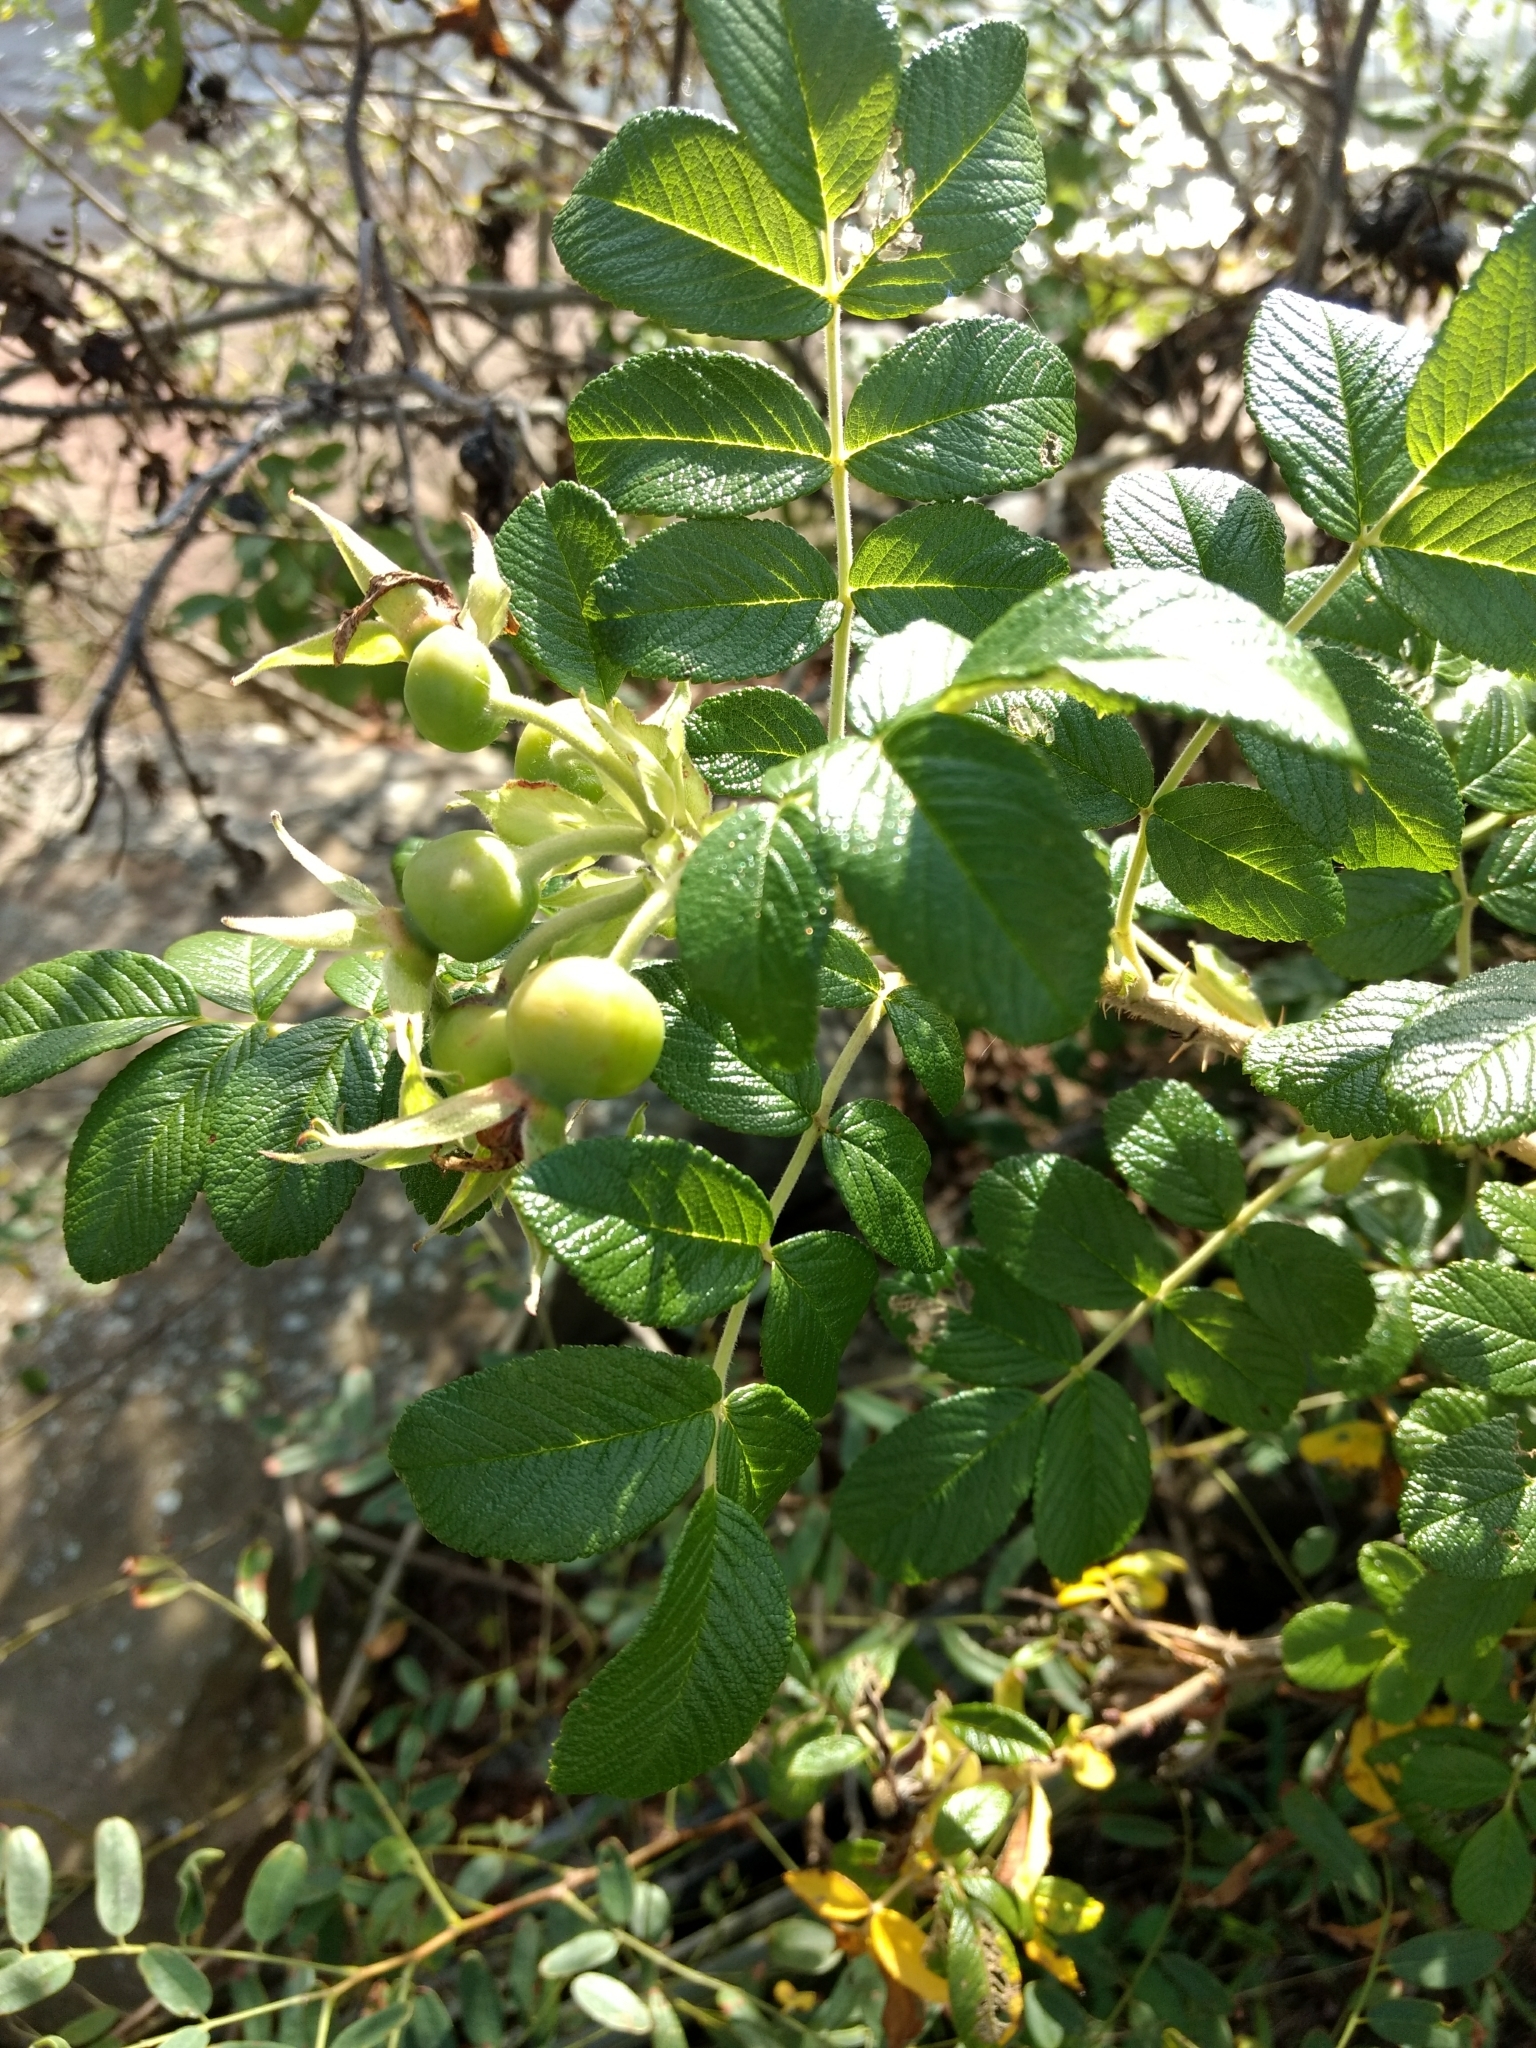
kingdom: Plantae
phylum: Tracheophyta
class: Magnoliopsida
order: Rosales
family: Rosaceae
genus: Rosa
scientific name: Rosa rugosa
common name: Japanese rose
